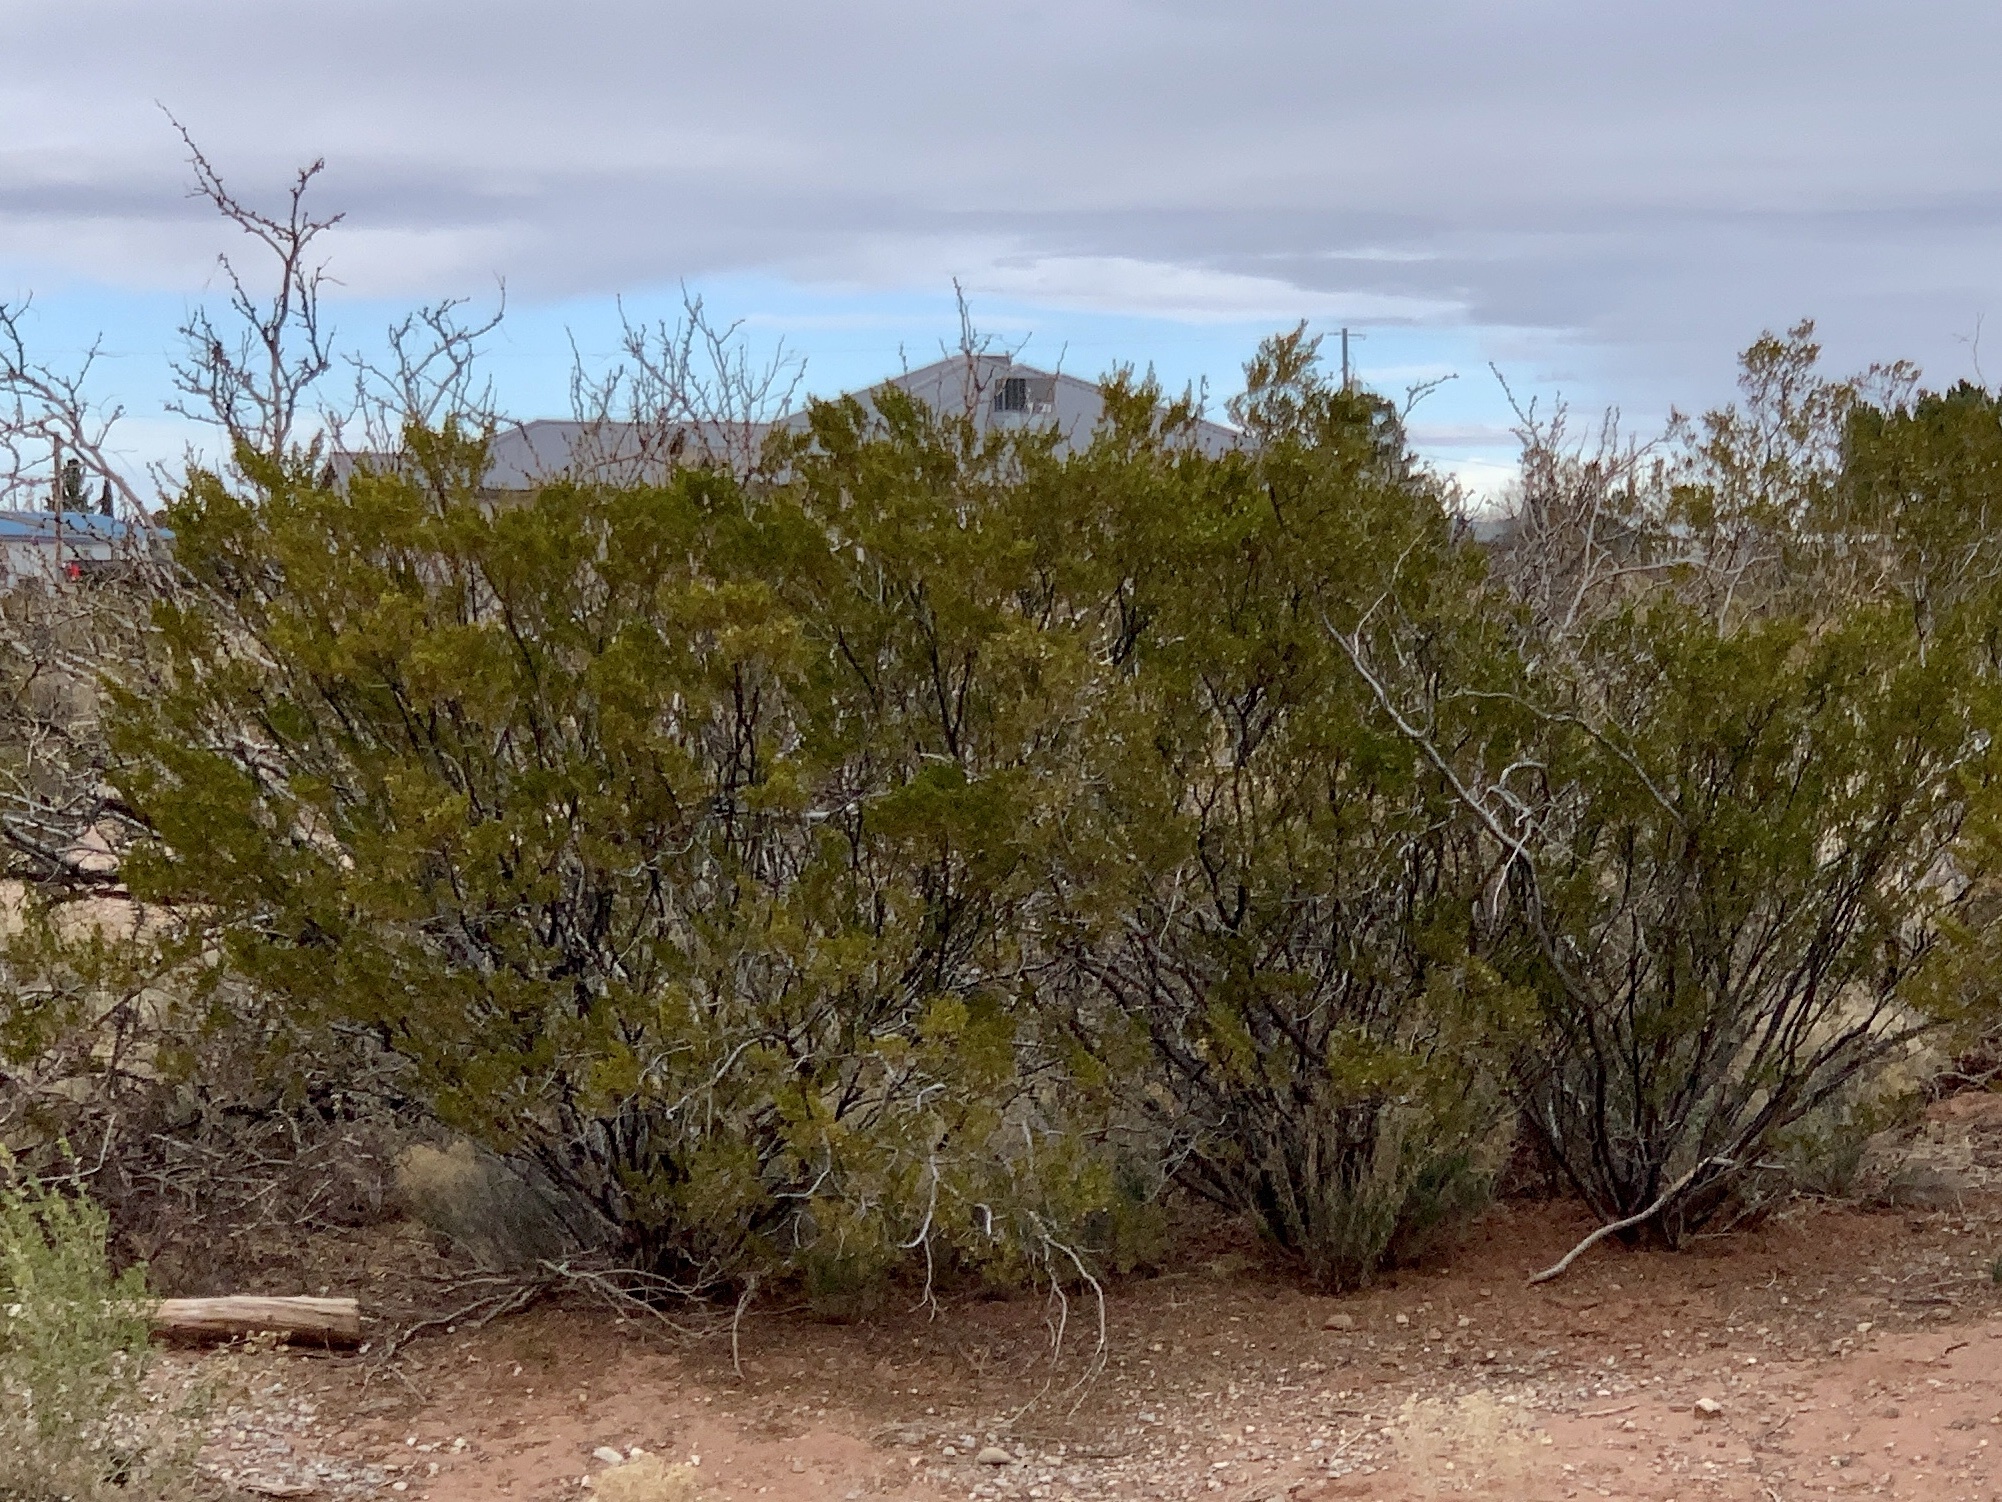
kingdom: Plantae
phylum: Tracheophyta
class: Magnoliopsida
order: Zygophyllales
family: Zygophyllaceae
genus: Larrea
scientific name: Larrea tridentata
